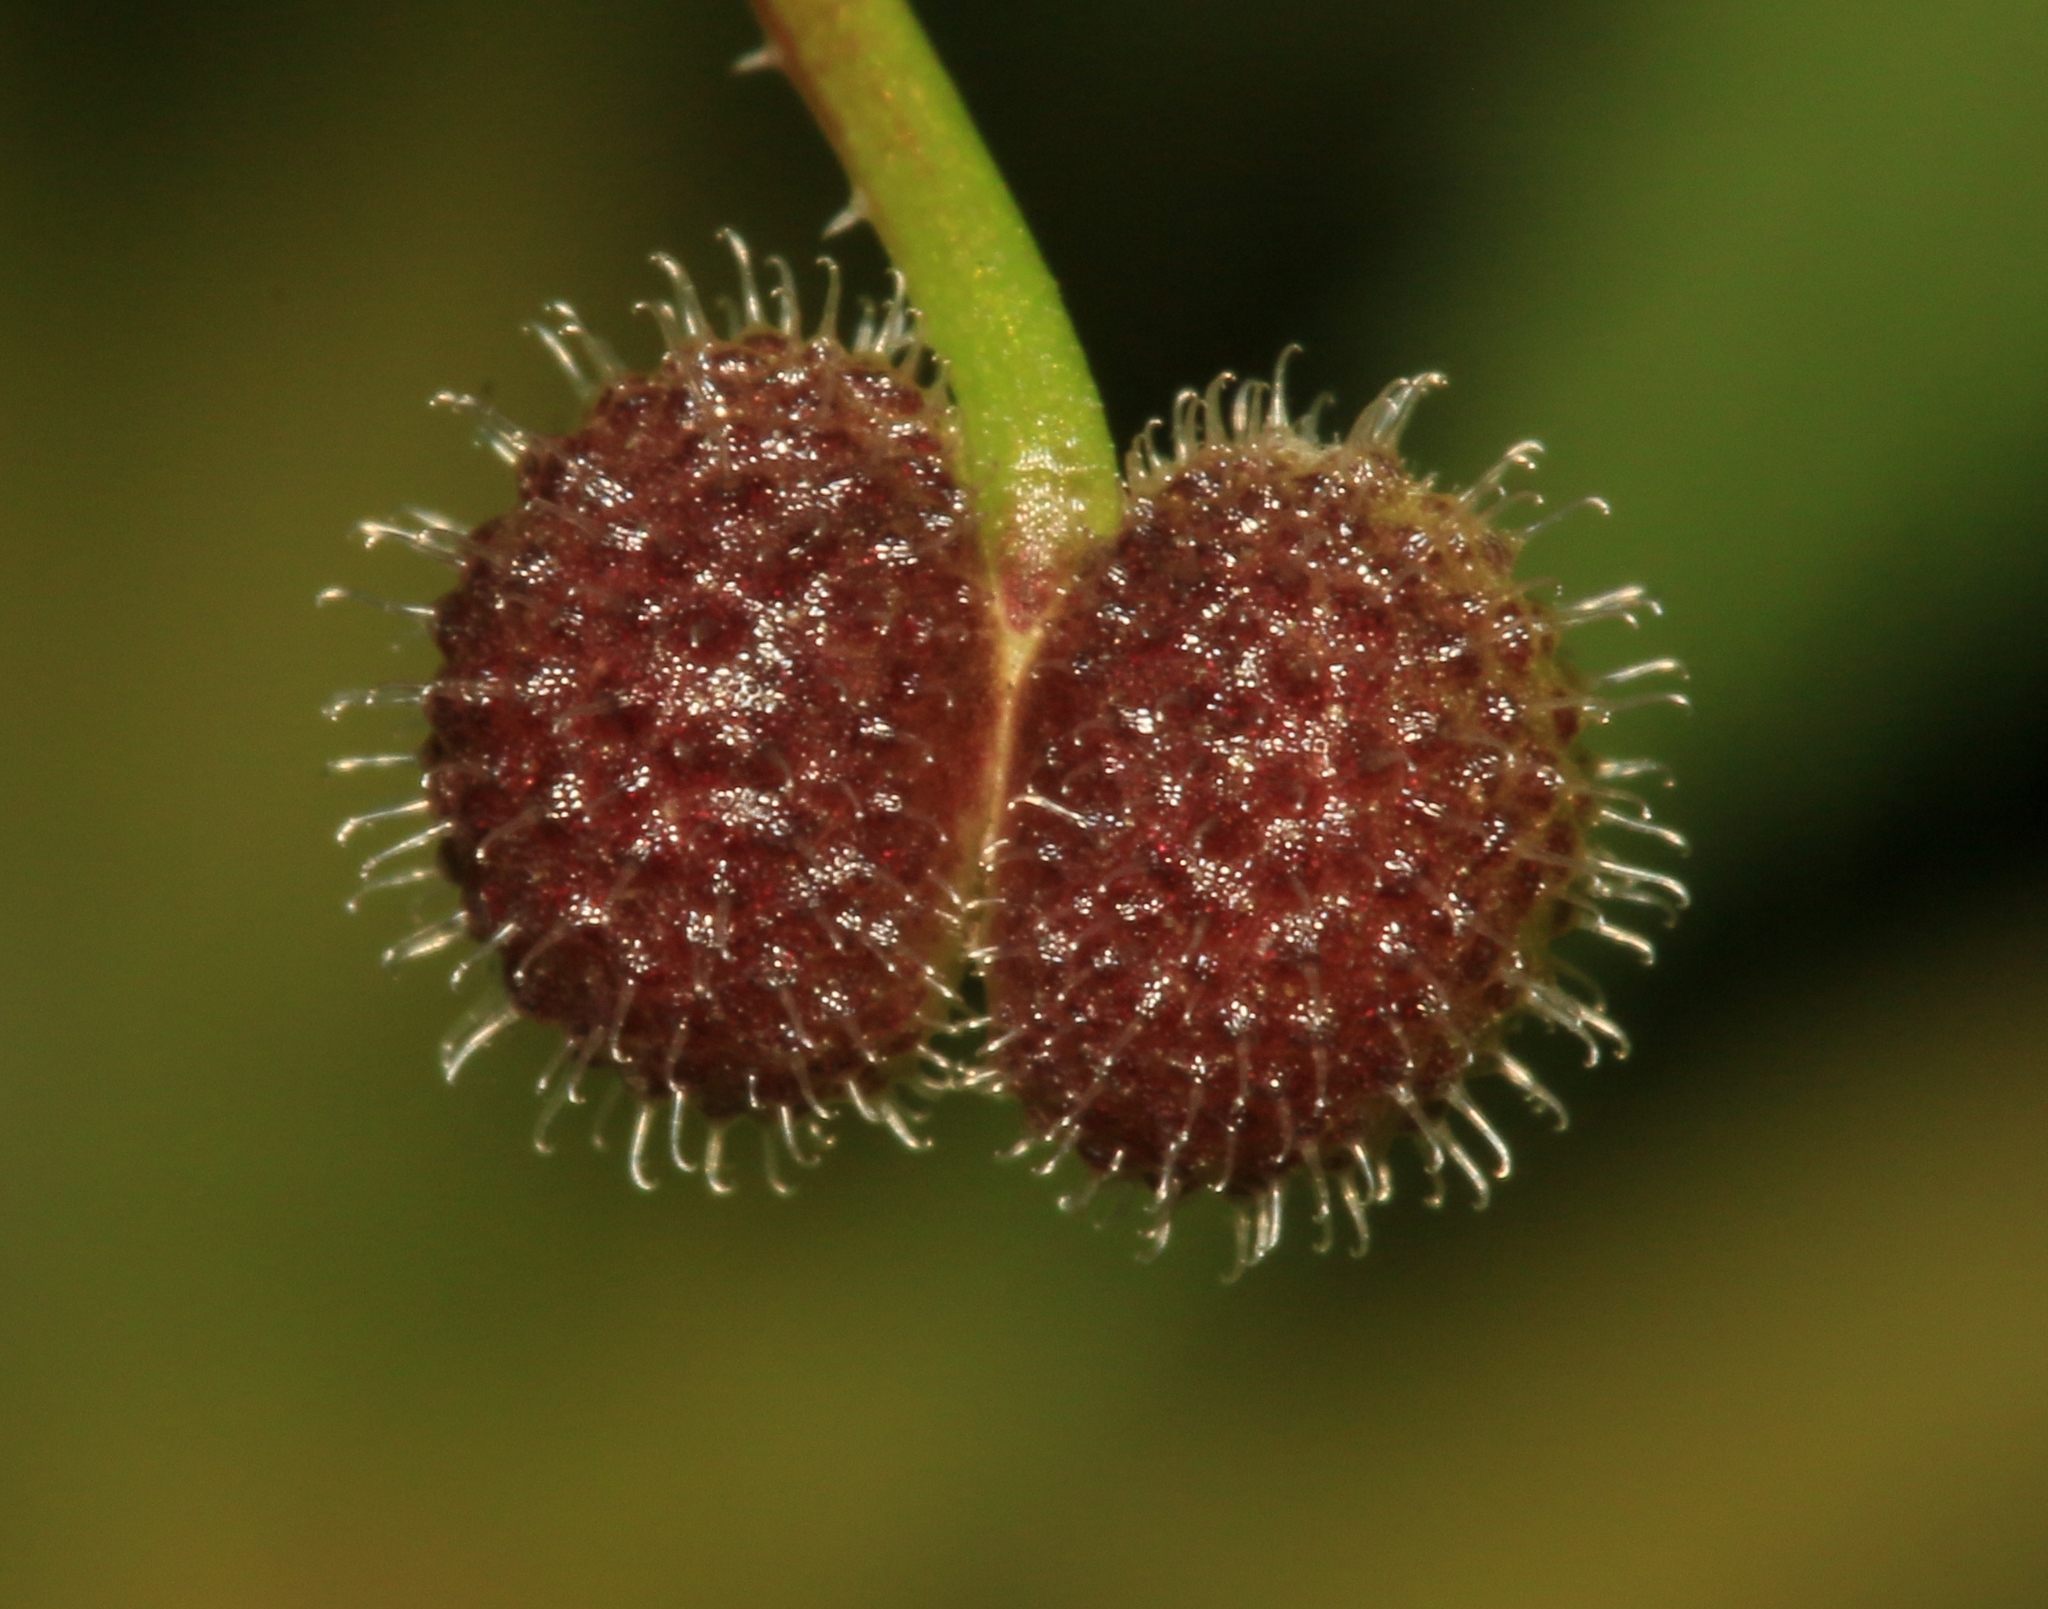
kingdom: Plantae
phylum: Tracheophyta
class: Magnoliopsida
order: Gentianales
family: Rubiaceae
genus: Galium
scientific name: Galium aparine
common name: Cleavers
